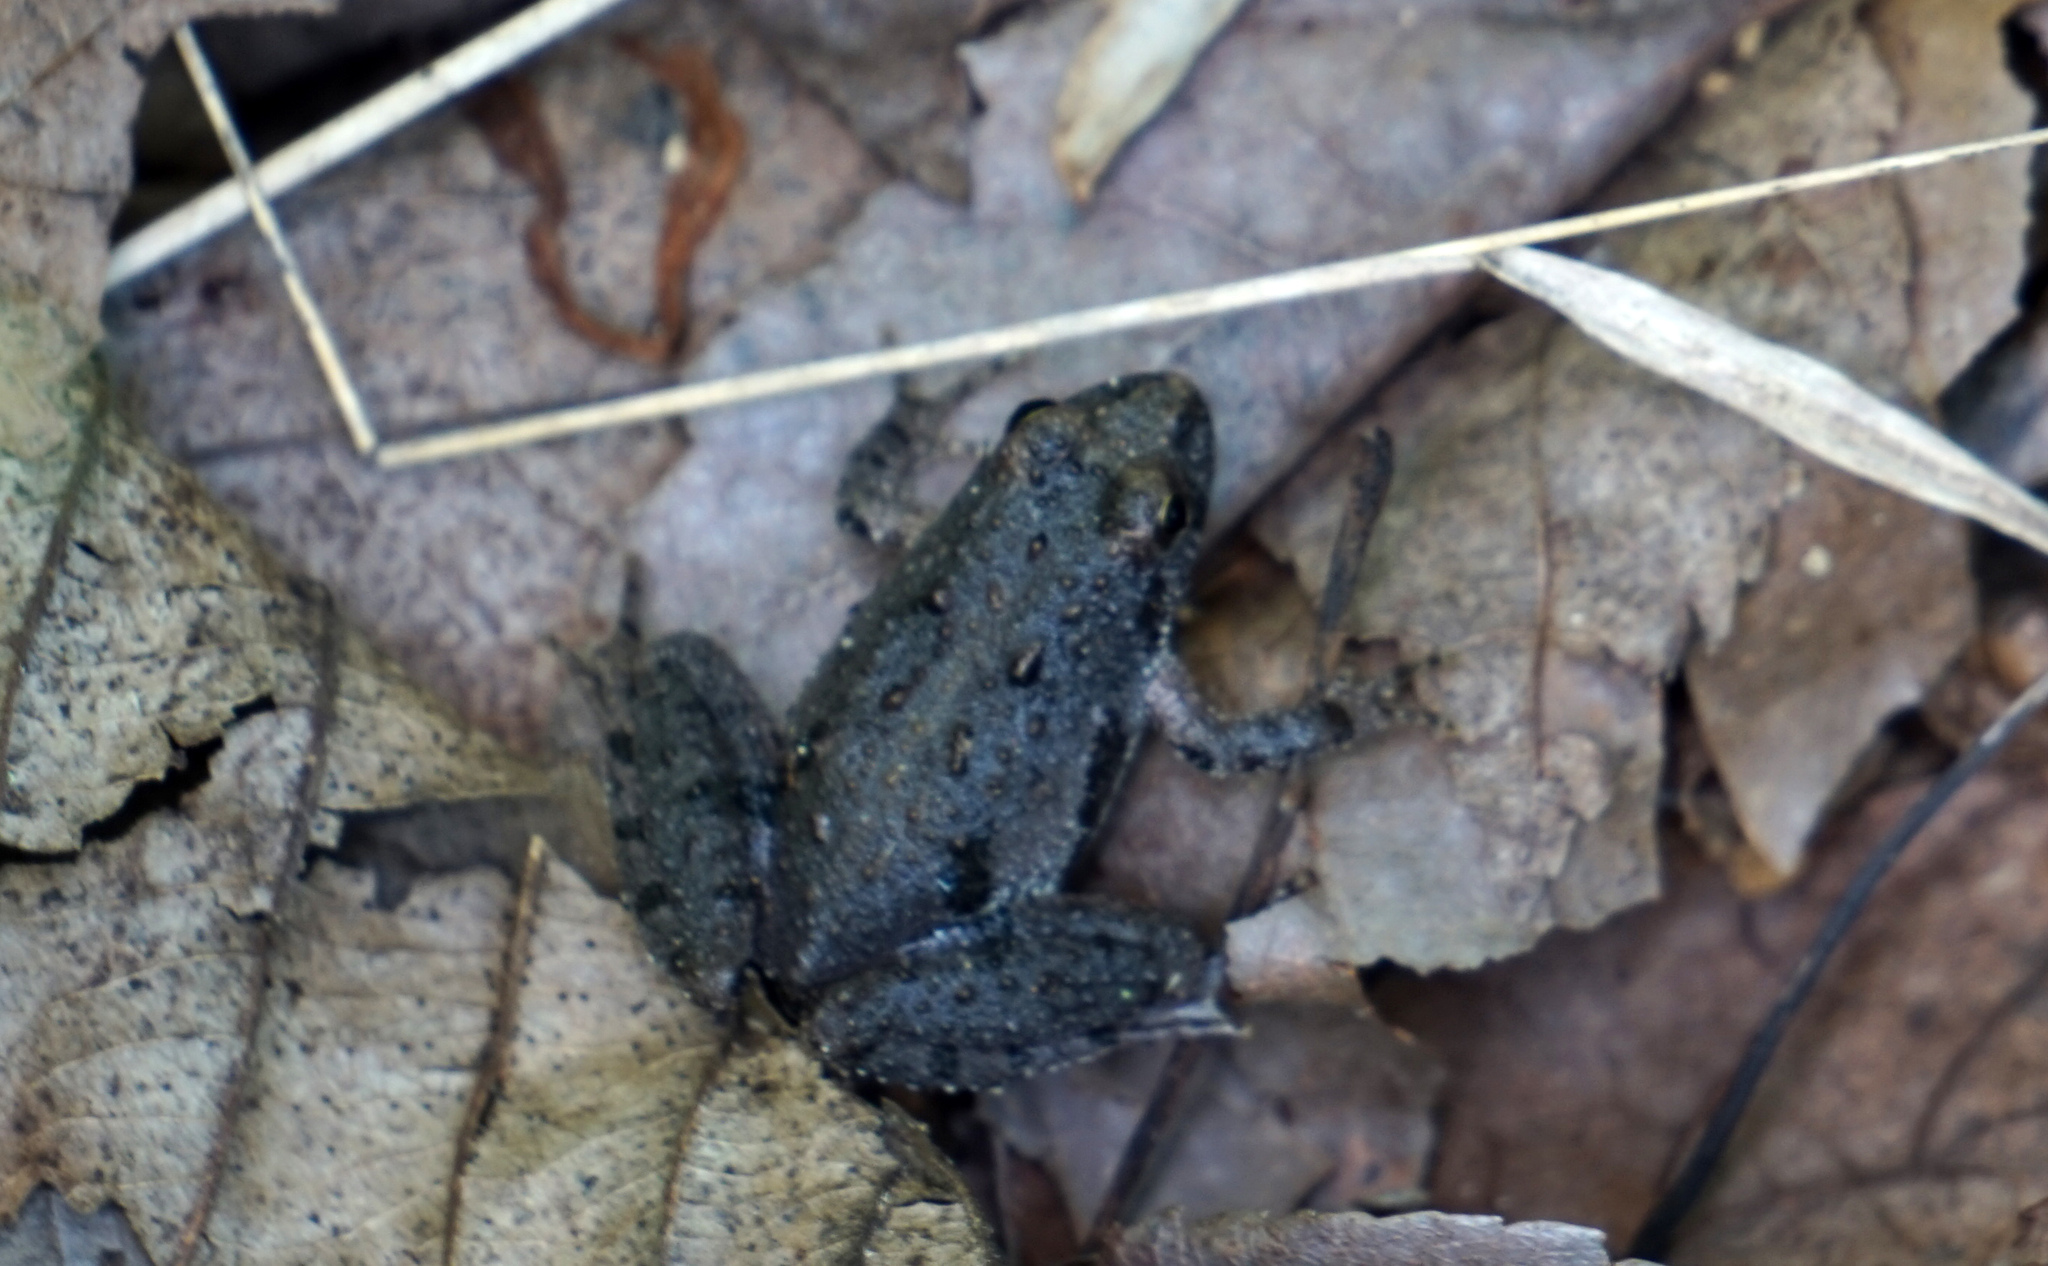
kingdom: Animalia
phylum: Chordata
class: Amphibia
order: Anura
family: Hylidae
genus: Acris
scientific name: Acris crepitans
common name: Northern cricket frog
